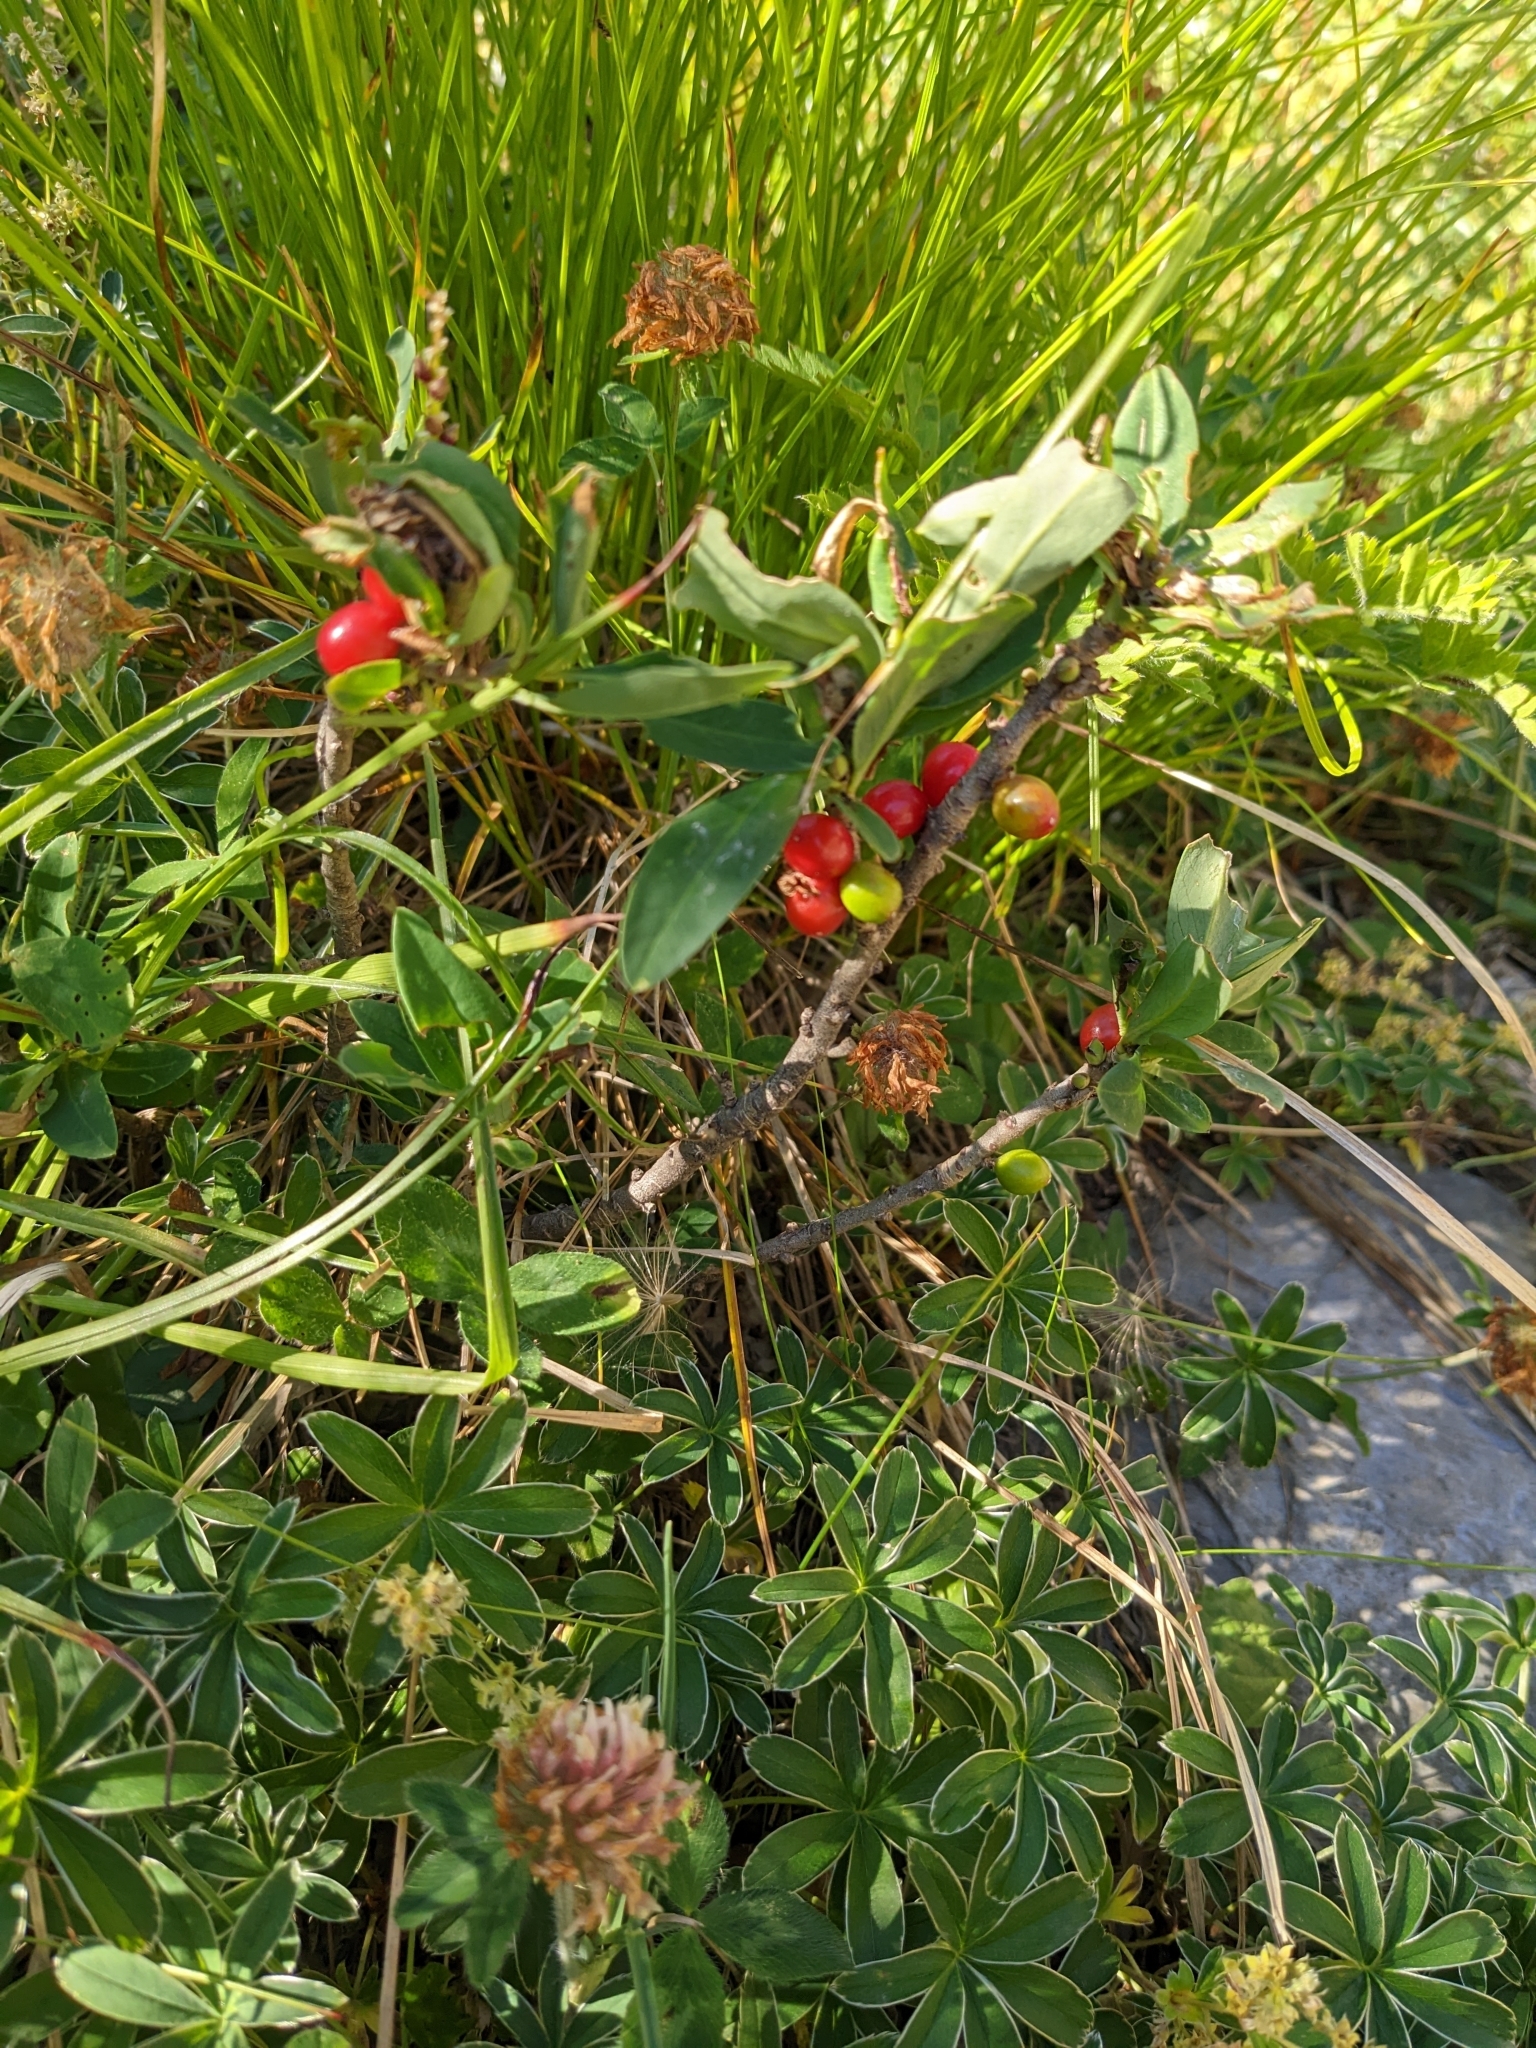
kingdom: Plantae
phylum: Tracheophyta
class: Magnoliopsida
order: Malvales
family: Thymelaeaceae
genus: Daphne
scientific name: Daphne mezereum
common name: Mezereon
